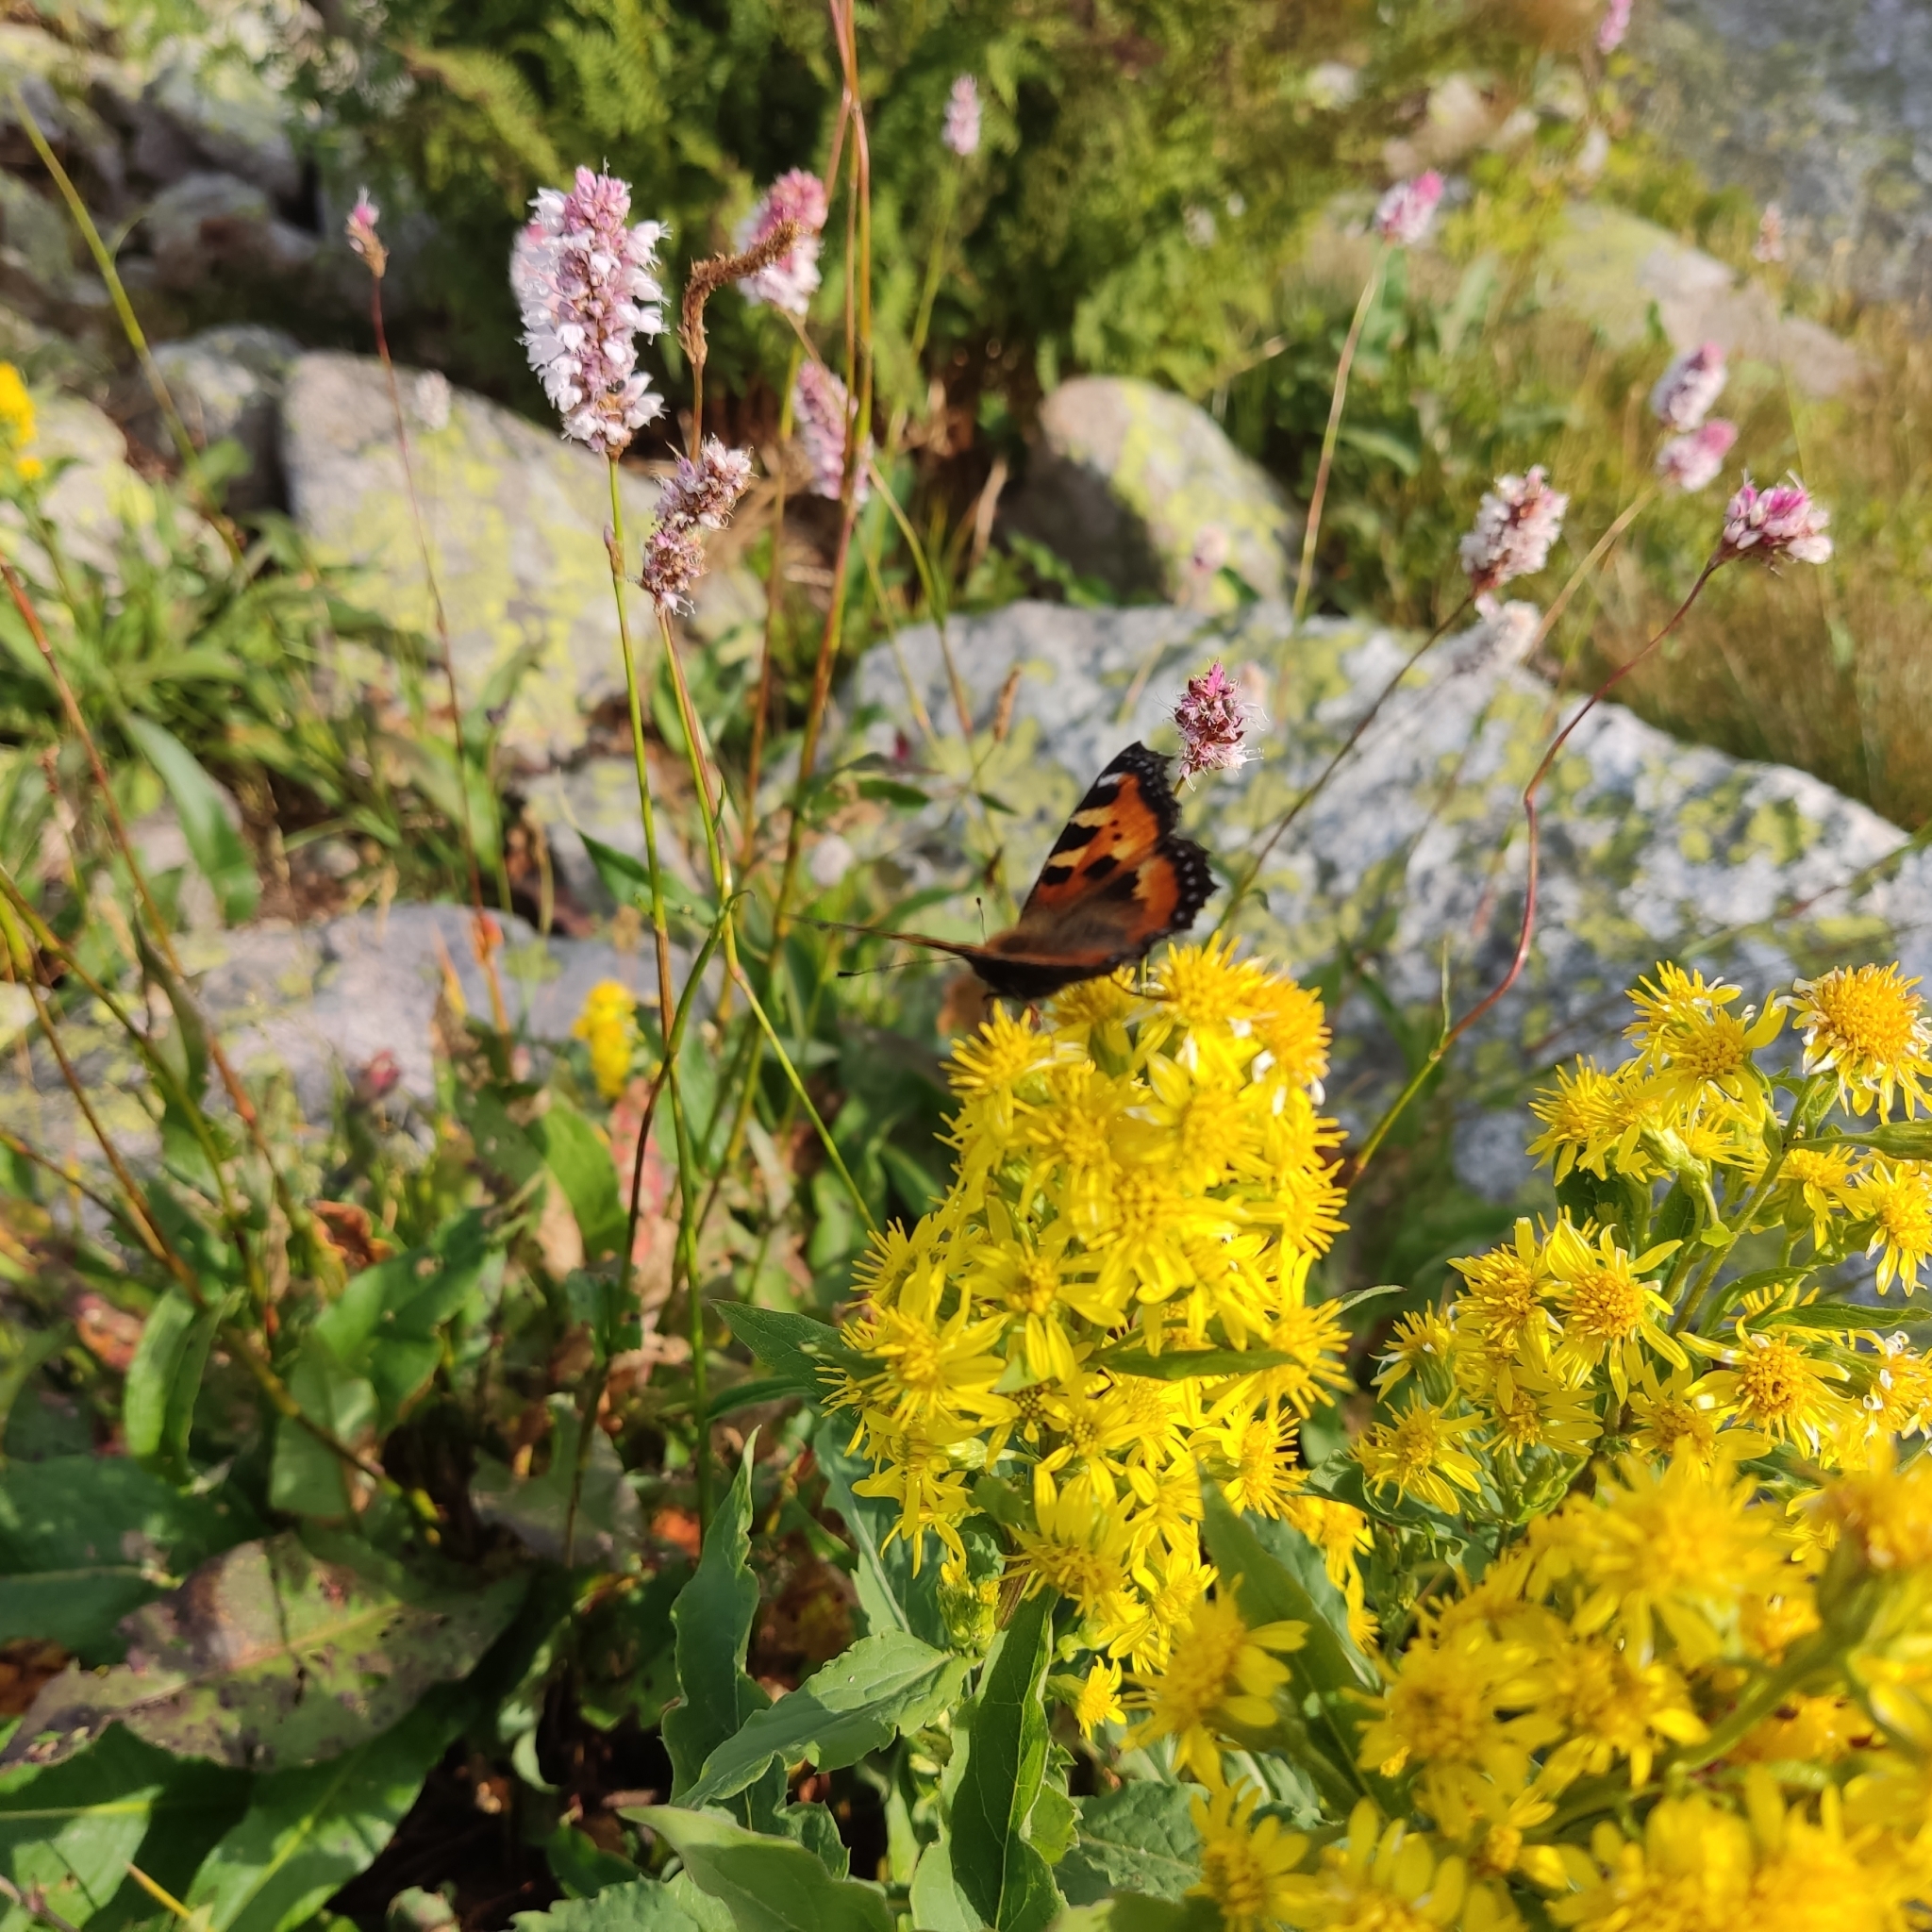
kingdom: Animalia
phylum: Arthropoda
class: Insecta
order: Lepidoptera
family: Nymphalidae
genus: Aglais
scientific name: Aglais urticae
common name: Small tortoiseshell
